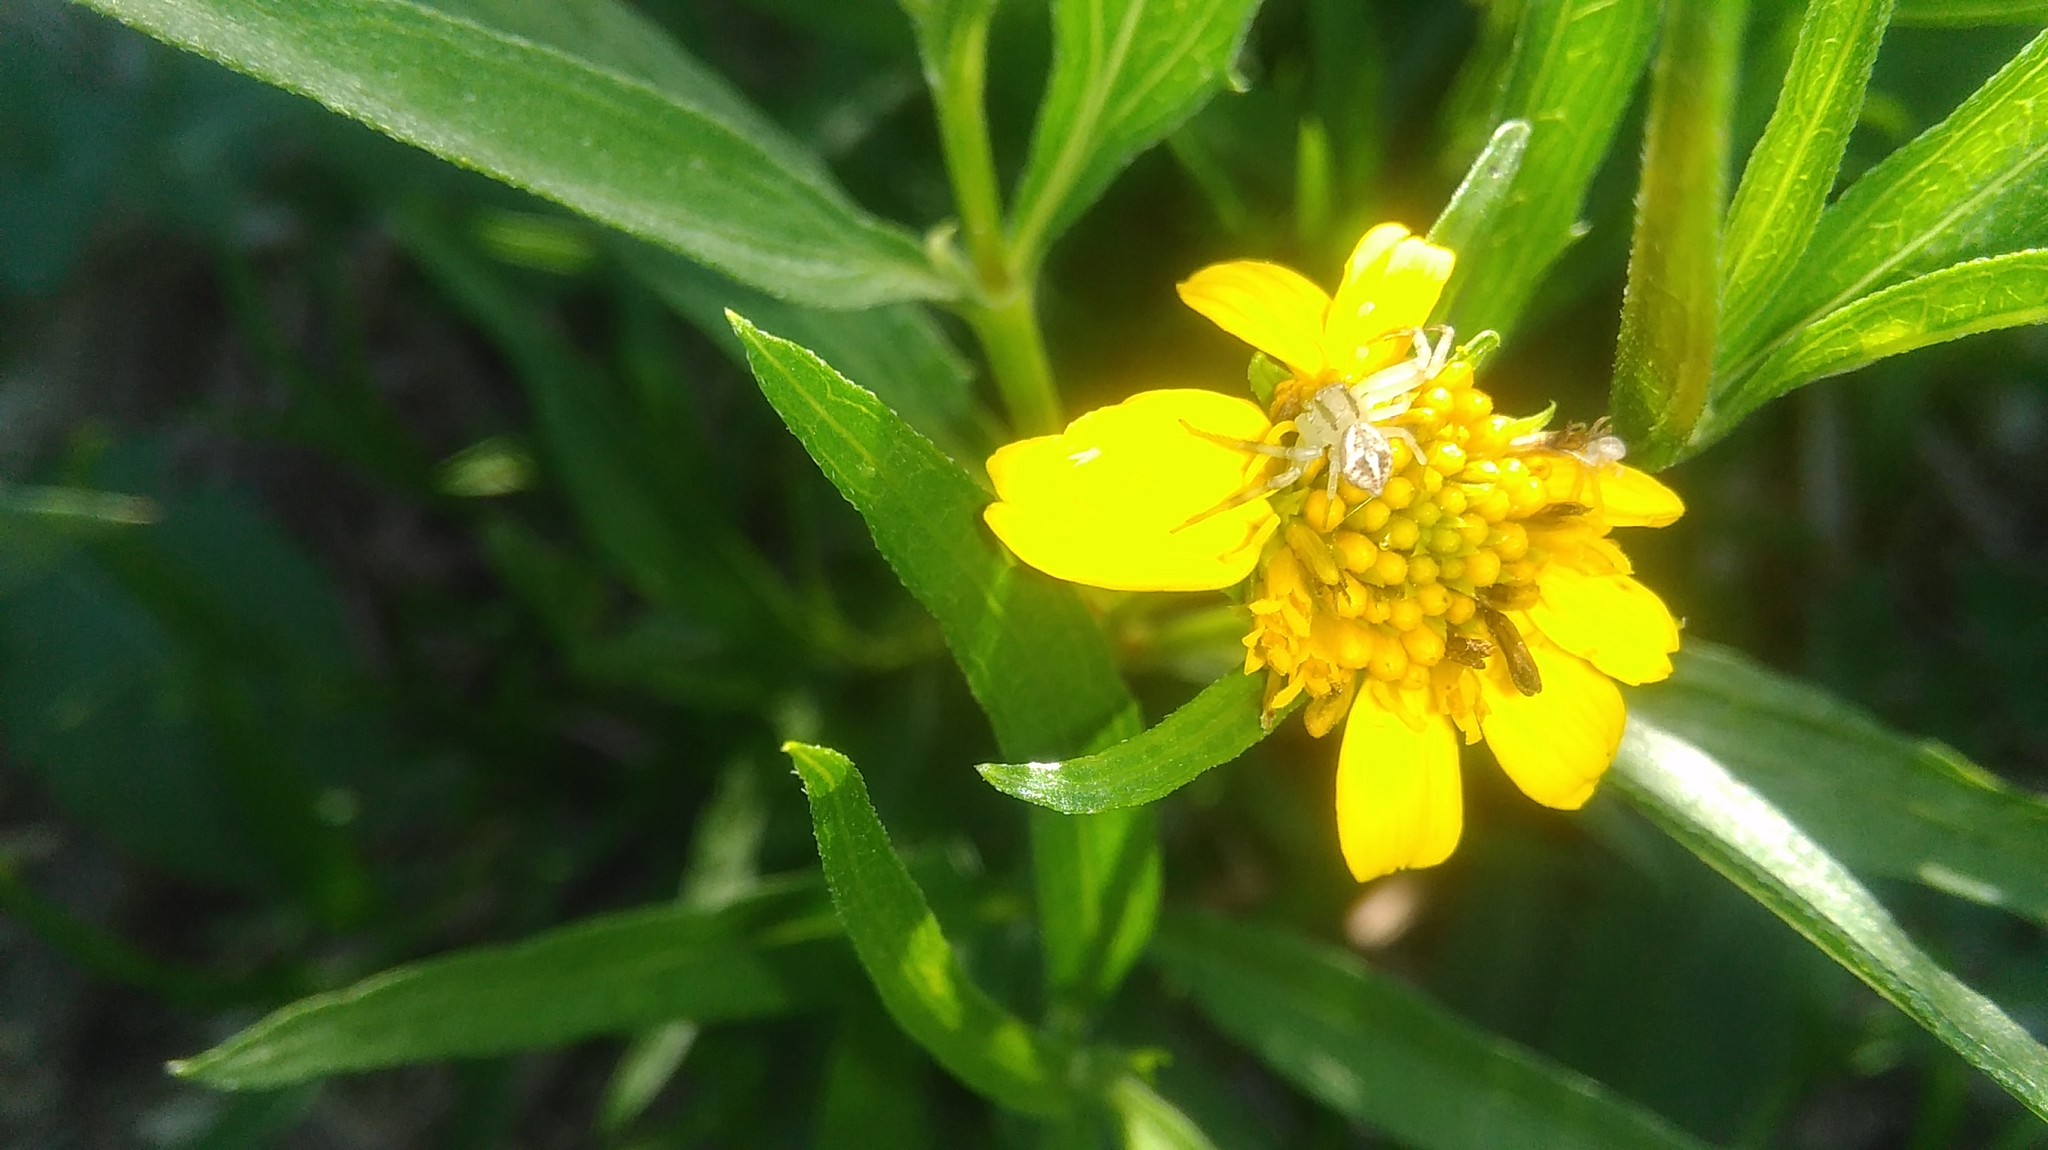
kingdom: Animalia
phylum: Arthropoda
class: Arachnida
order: Araneae
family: Thomisidae
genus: Misumenops
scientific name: Misumenops
